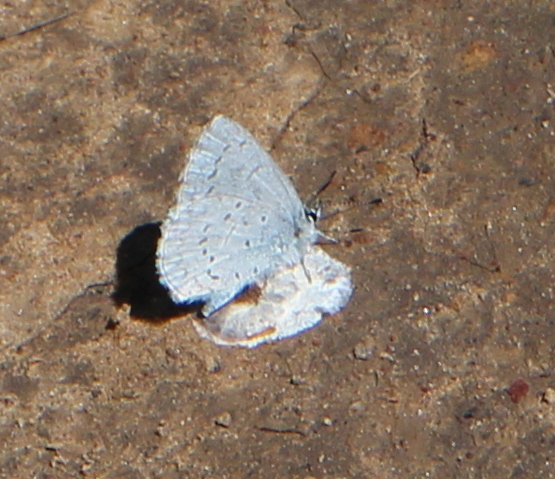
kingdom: Animalia
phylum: Arthropoda
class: Insecta
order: Lepidoptera
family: Lycaenidae
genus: Celastrina
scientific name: Celastrina ladon
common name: Spring azure
